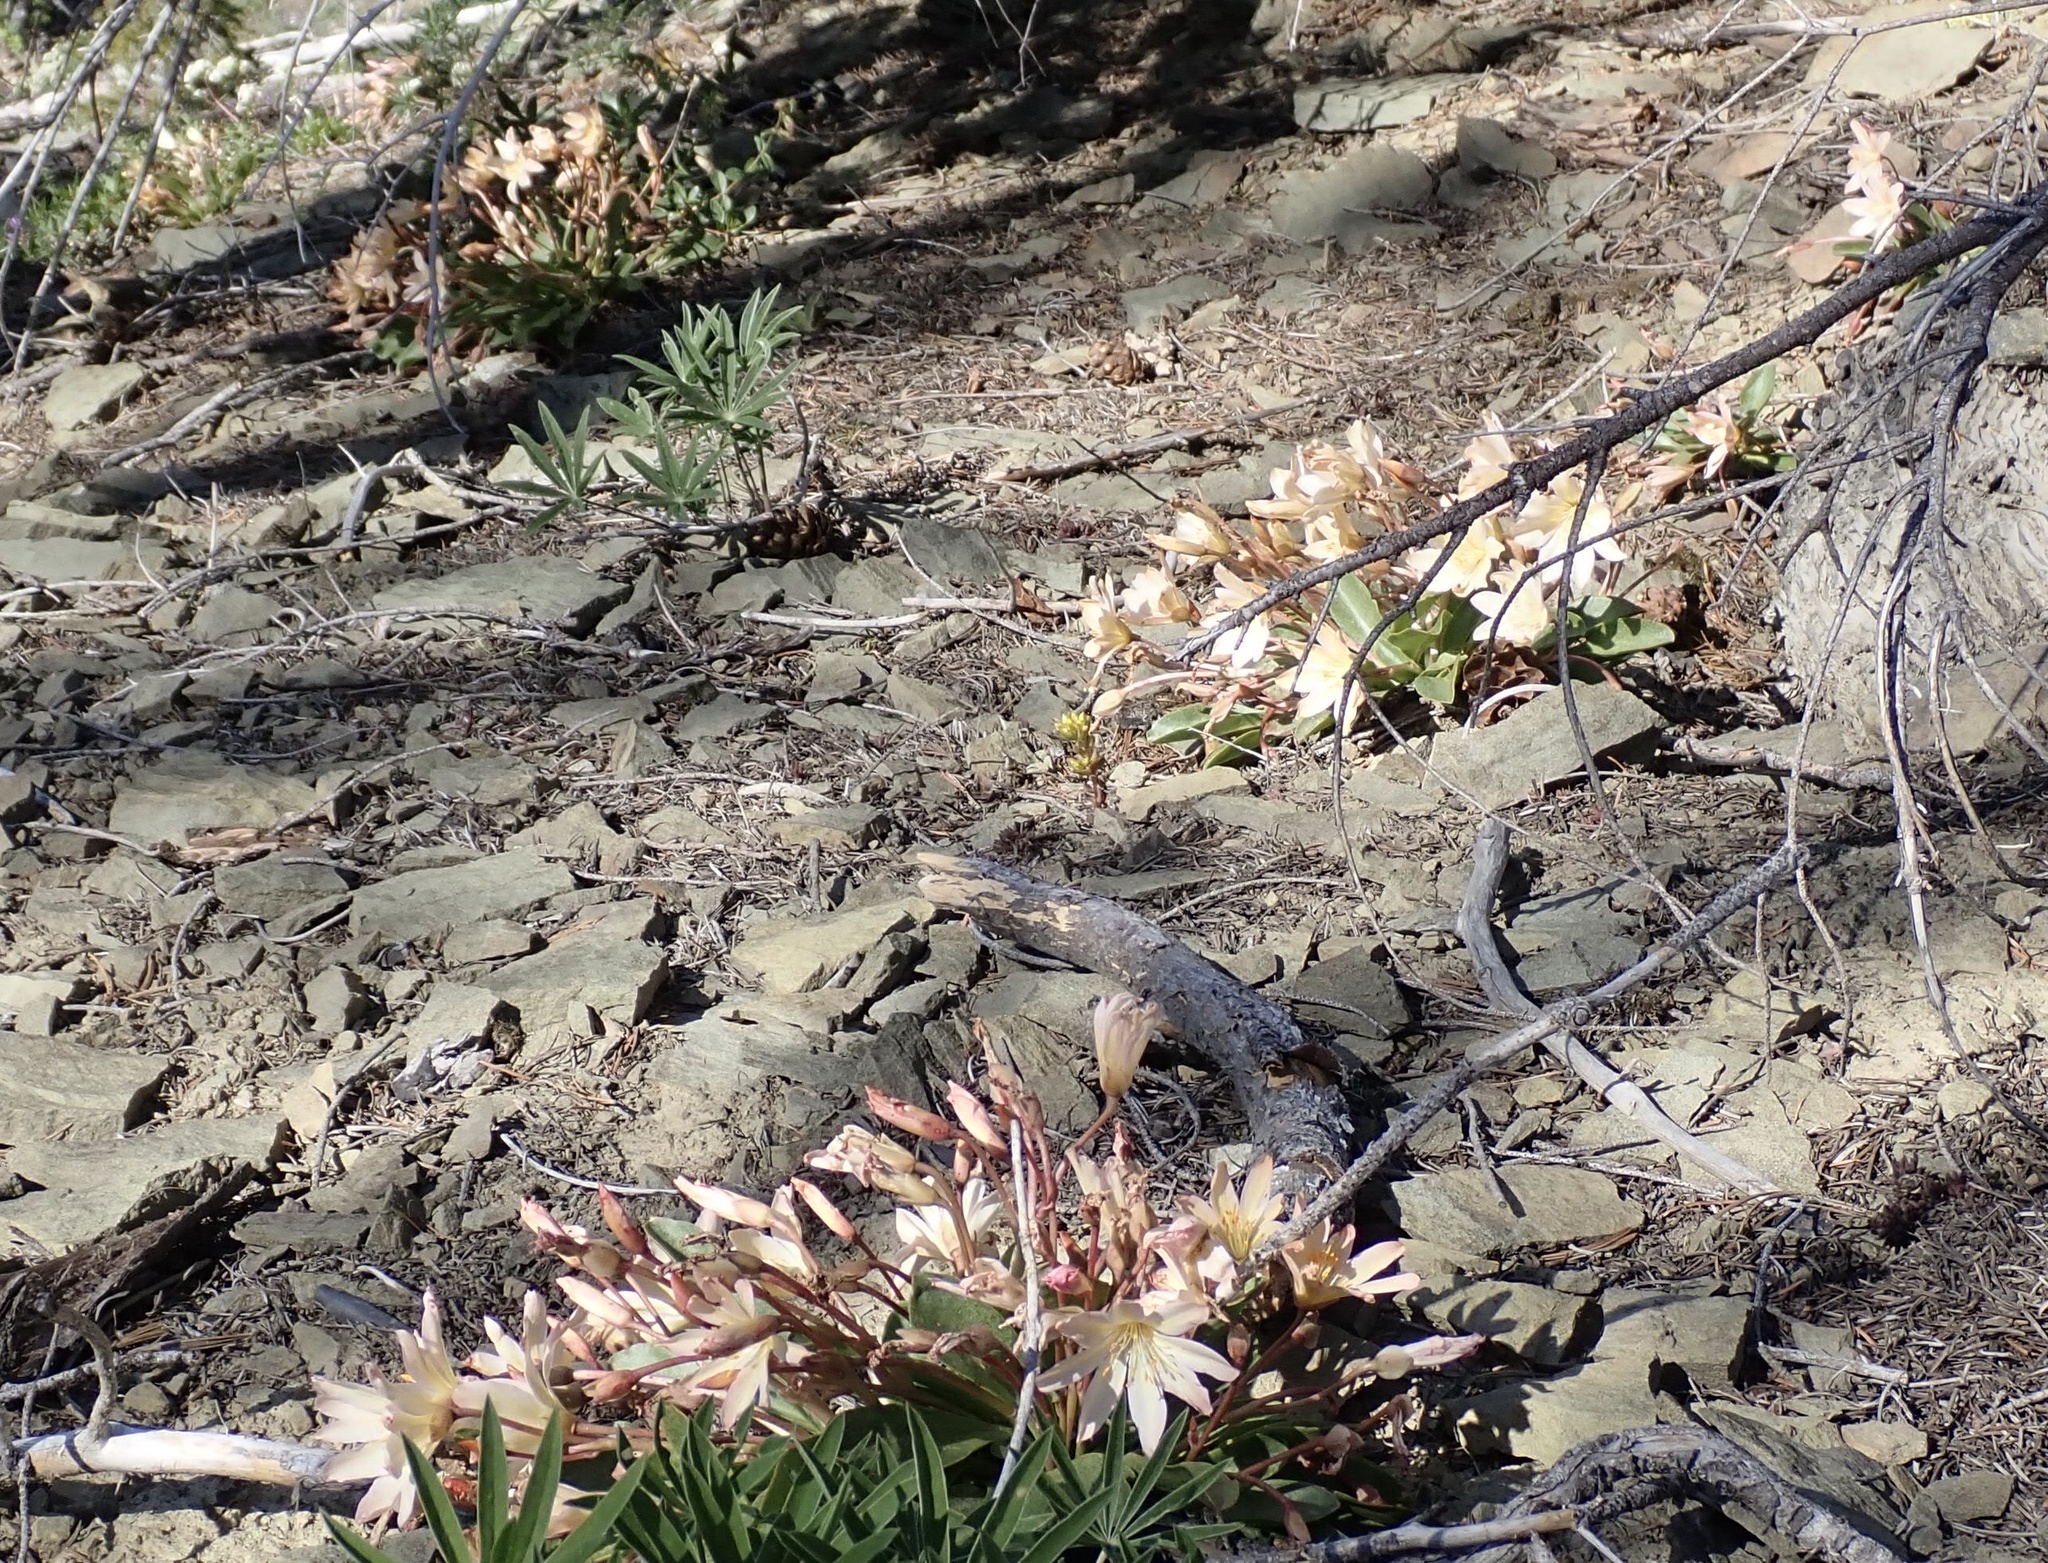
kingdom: Plantae
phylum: Tracheophyta
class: Magnoliopsida
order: Caryophyllales
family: Montiaceae
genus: Lewisiopsis
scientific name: Lewisiopsis tweedyi
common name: Tweedy's pussypaws
